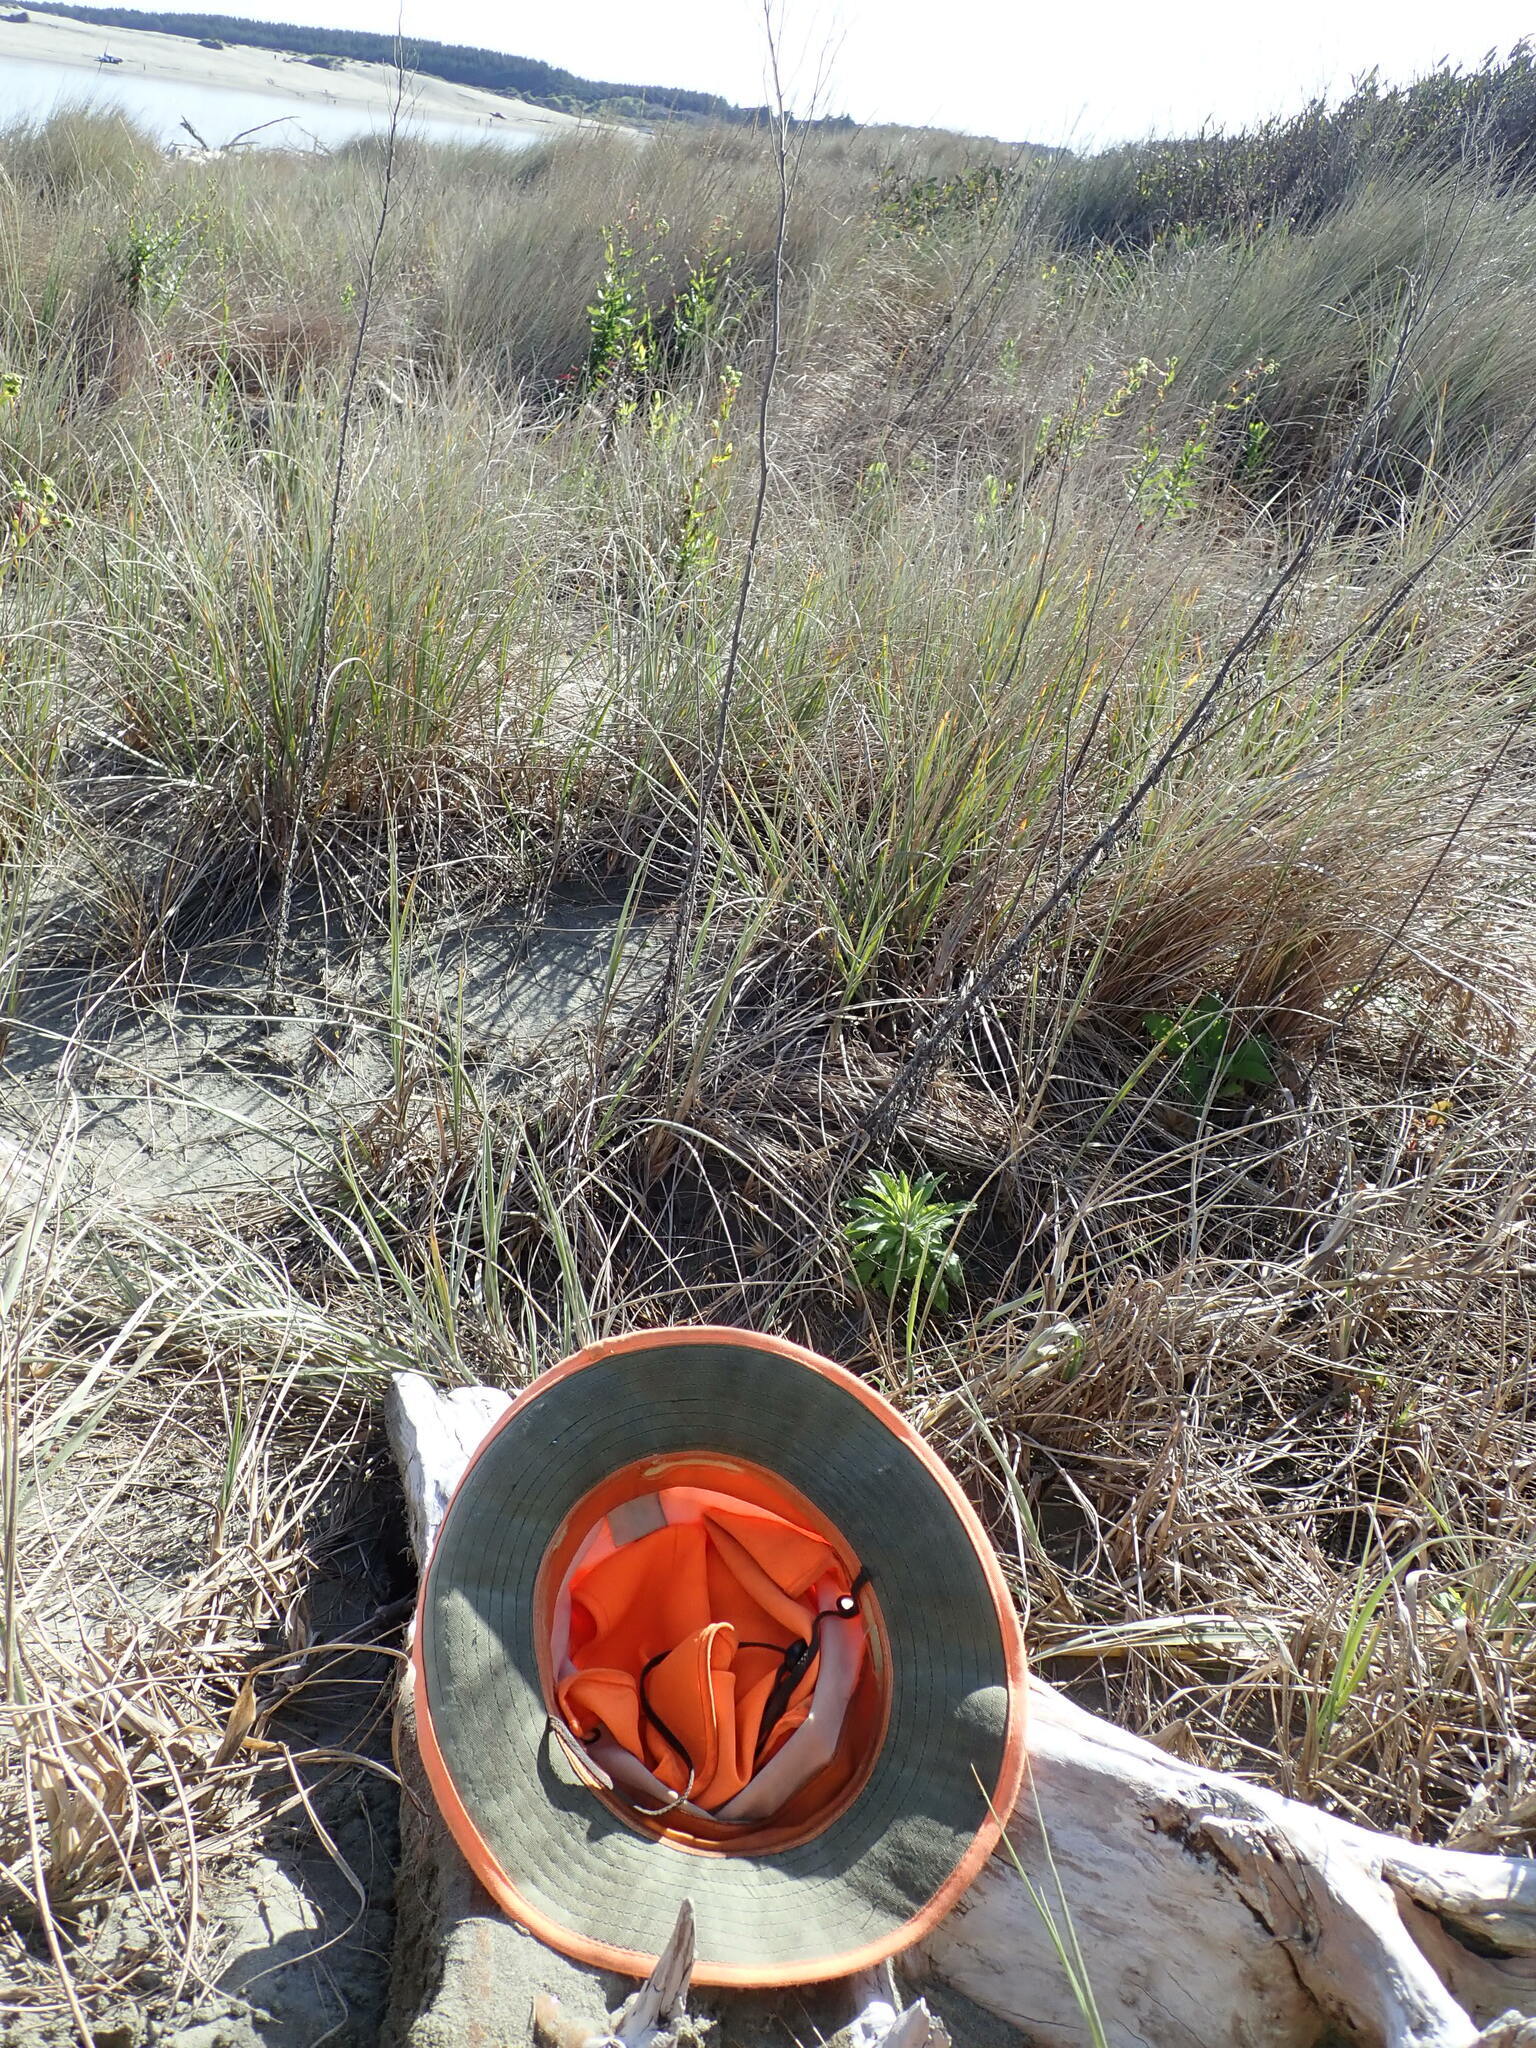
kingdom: Animalia
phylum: Mollusca
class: Gastropoda
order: Stylommatophora
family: Helicidae
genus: Cornu
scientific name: Cornu aspersum
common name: Brown garden snail
